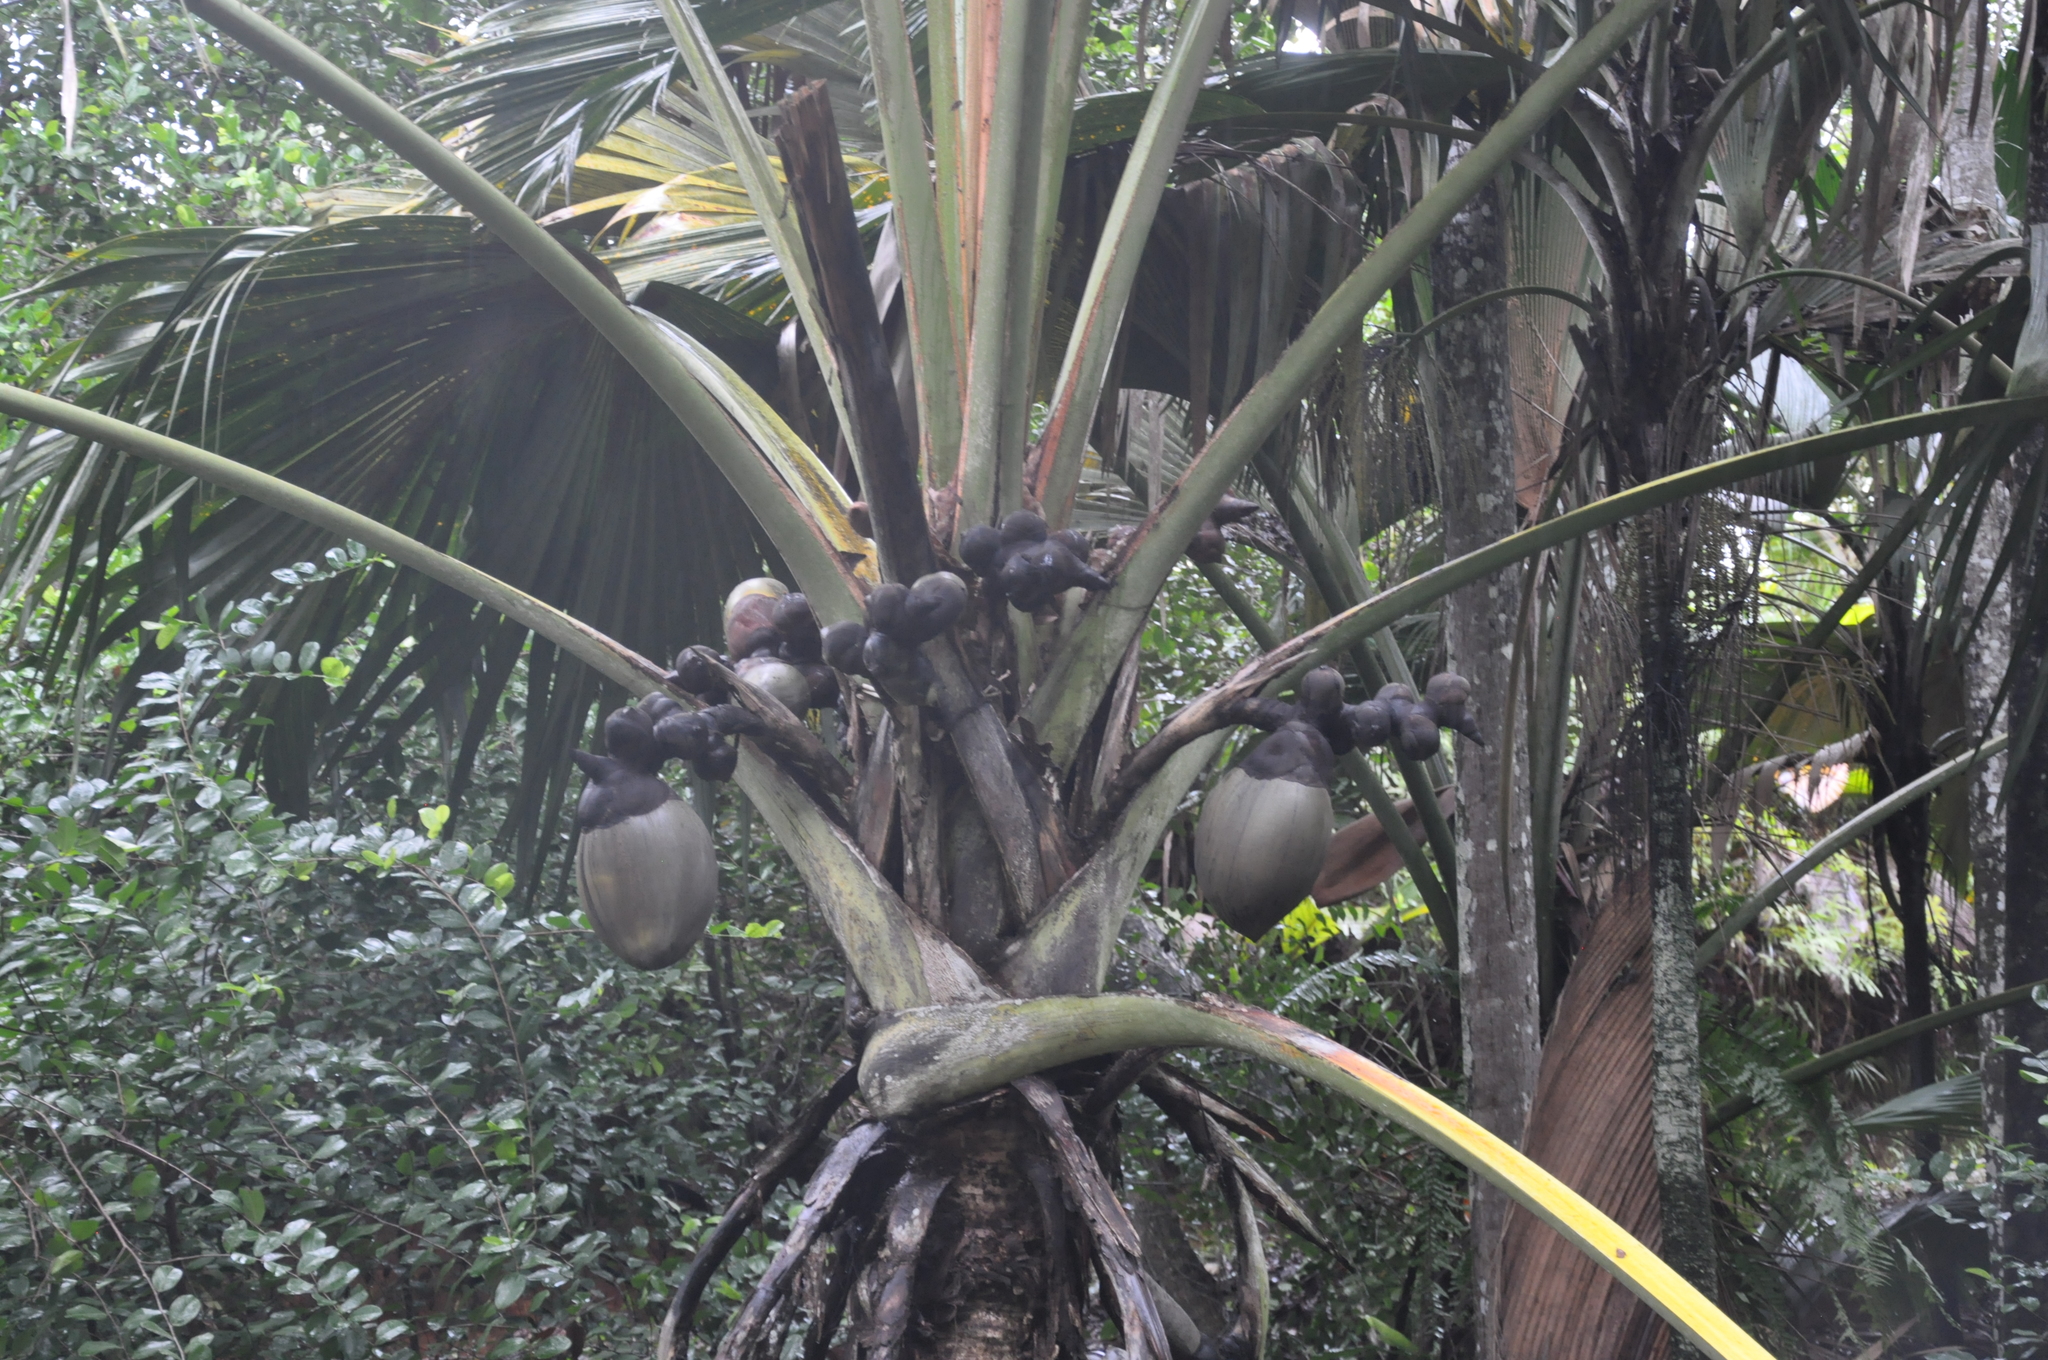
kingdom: Plantae
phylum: Tracheophyta
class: Liliopsida
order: Arecales
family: Arecaceae
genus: Lodoicea
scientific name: Lodoicea maldivica
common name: Double coconut palm
